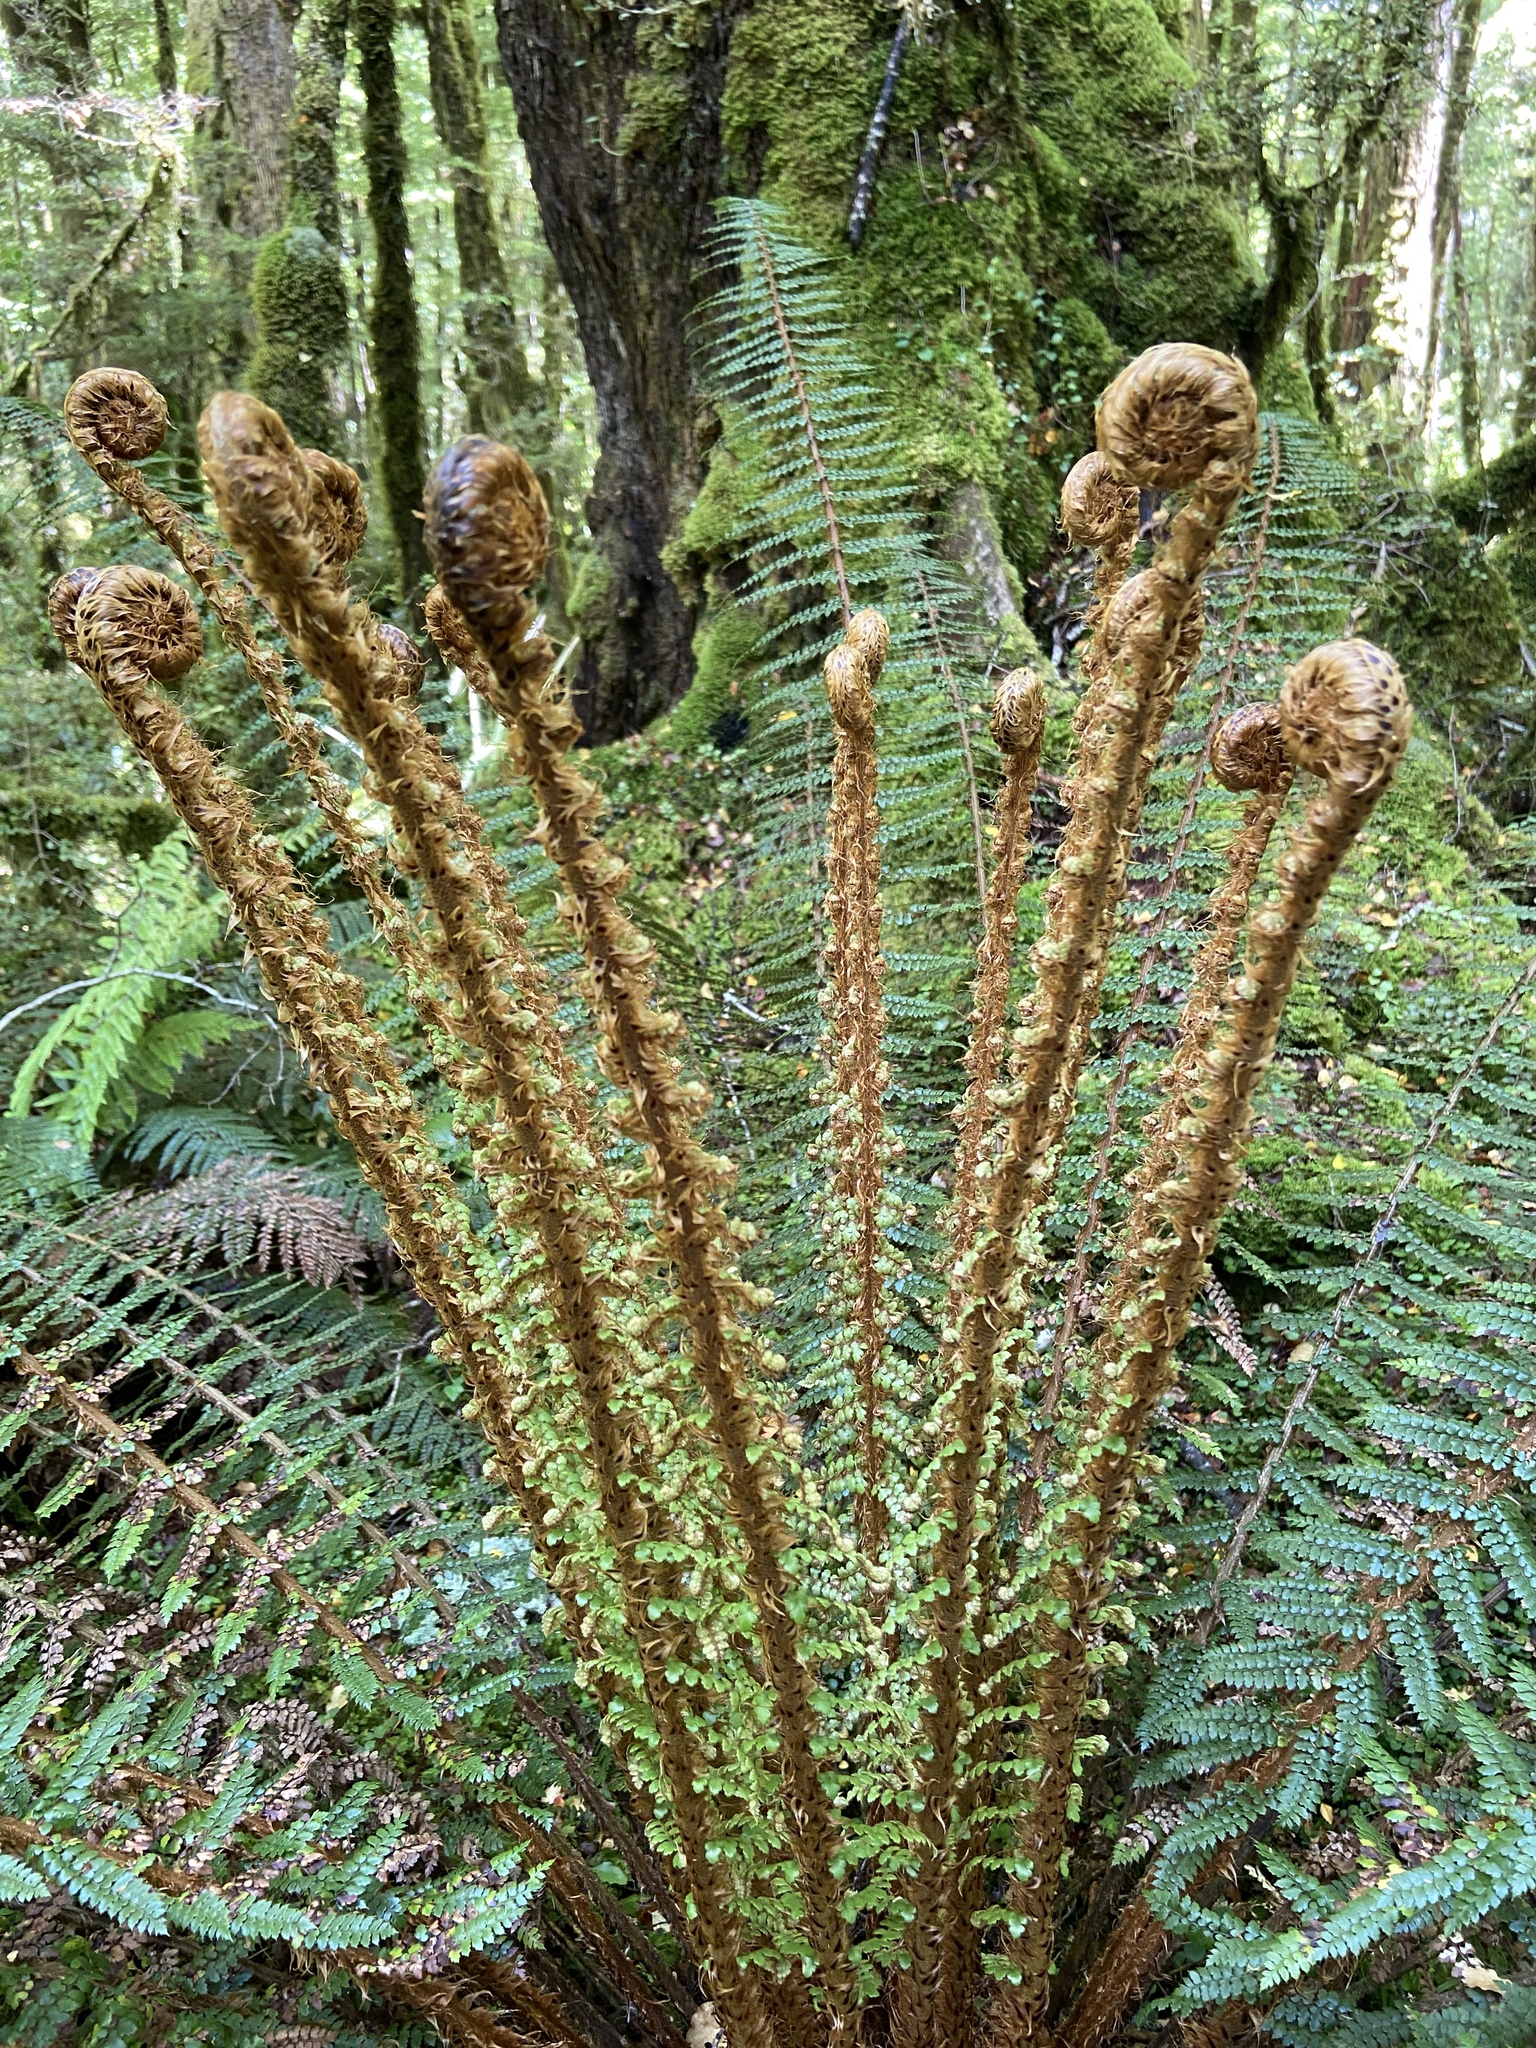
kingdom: Plantae
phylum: Tracheophyta
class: Polypodiopsida
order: Polypodiales
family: Dryopteridaceae
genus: Polystichum
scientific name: Polystichum vestitum
